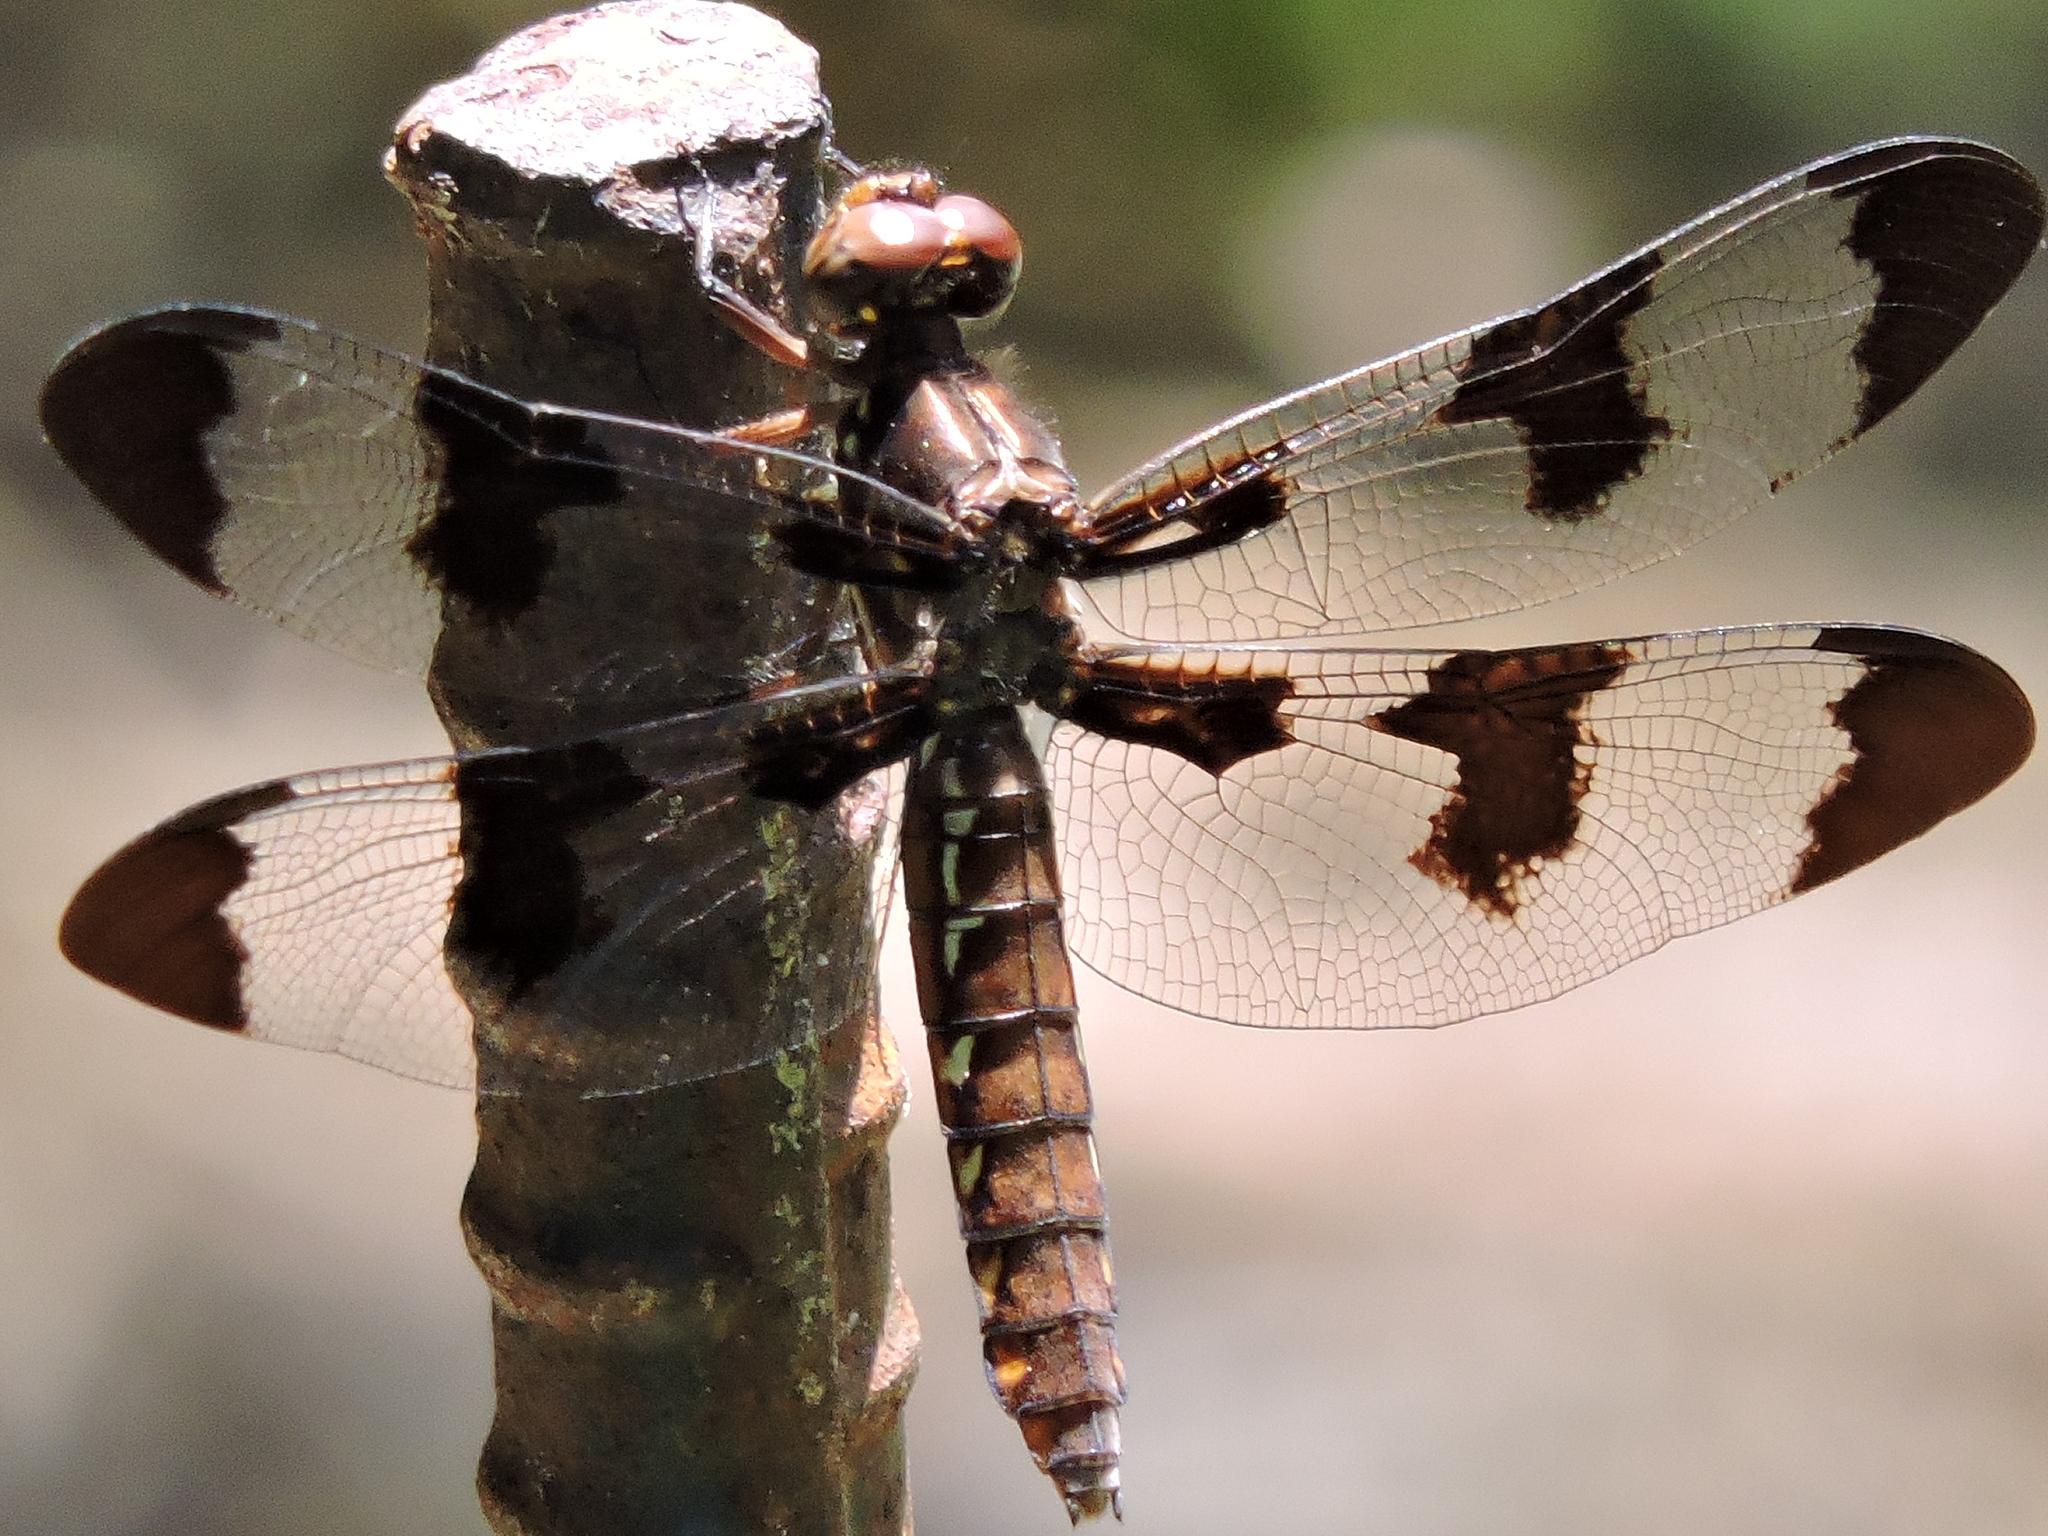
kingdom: Animalia
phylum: Arthropoda
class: Insecta
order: Odonata
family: Libellulidae
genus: Plathemis
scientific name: Plathemis lydia
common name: Common whitetail
